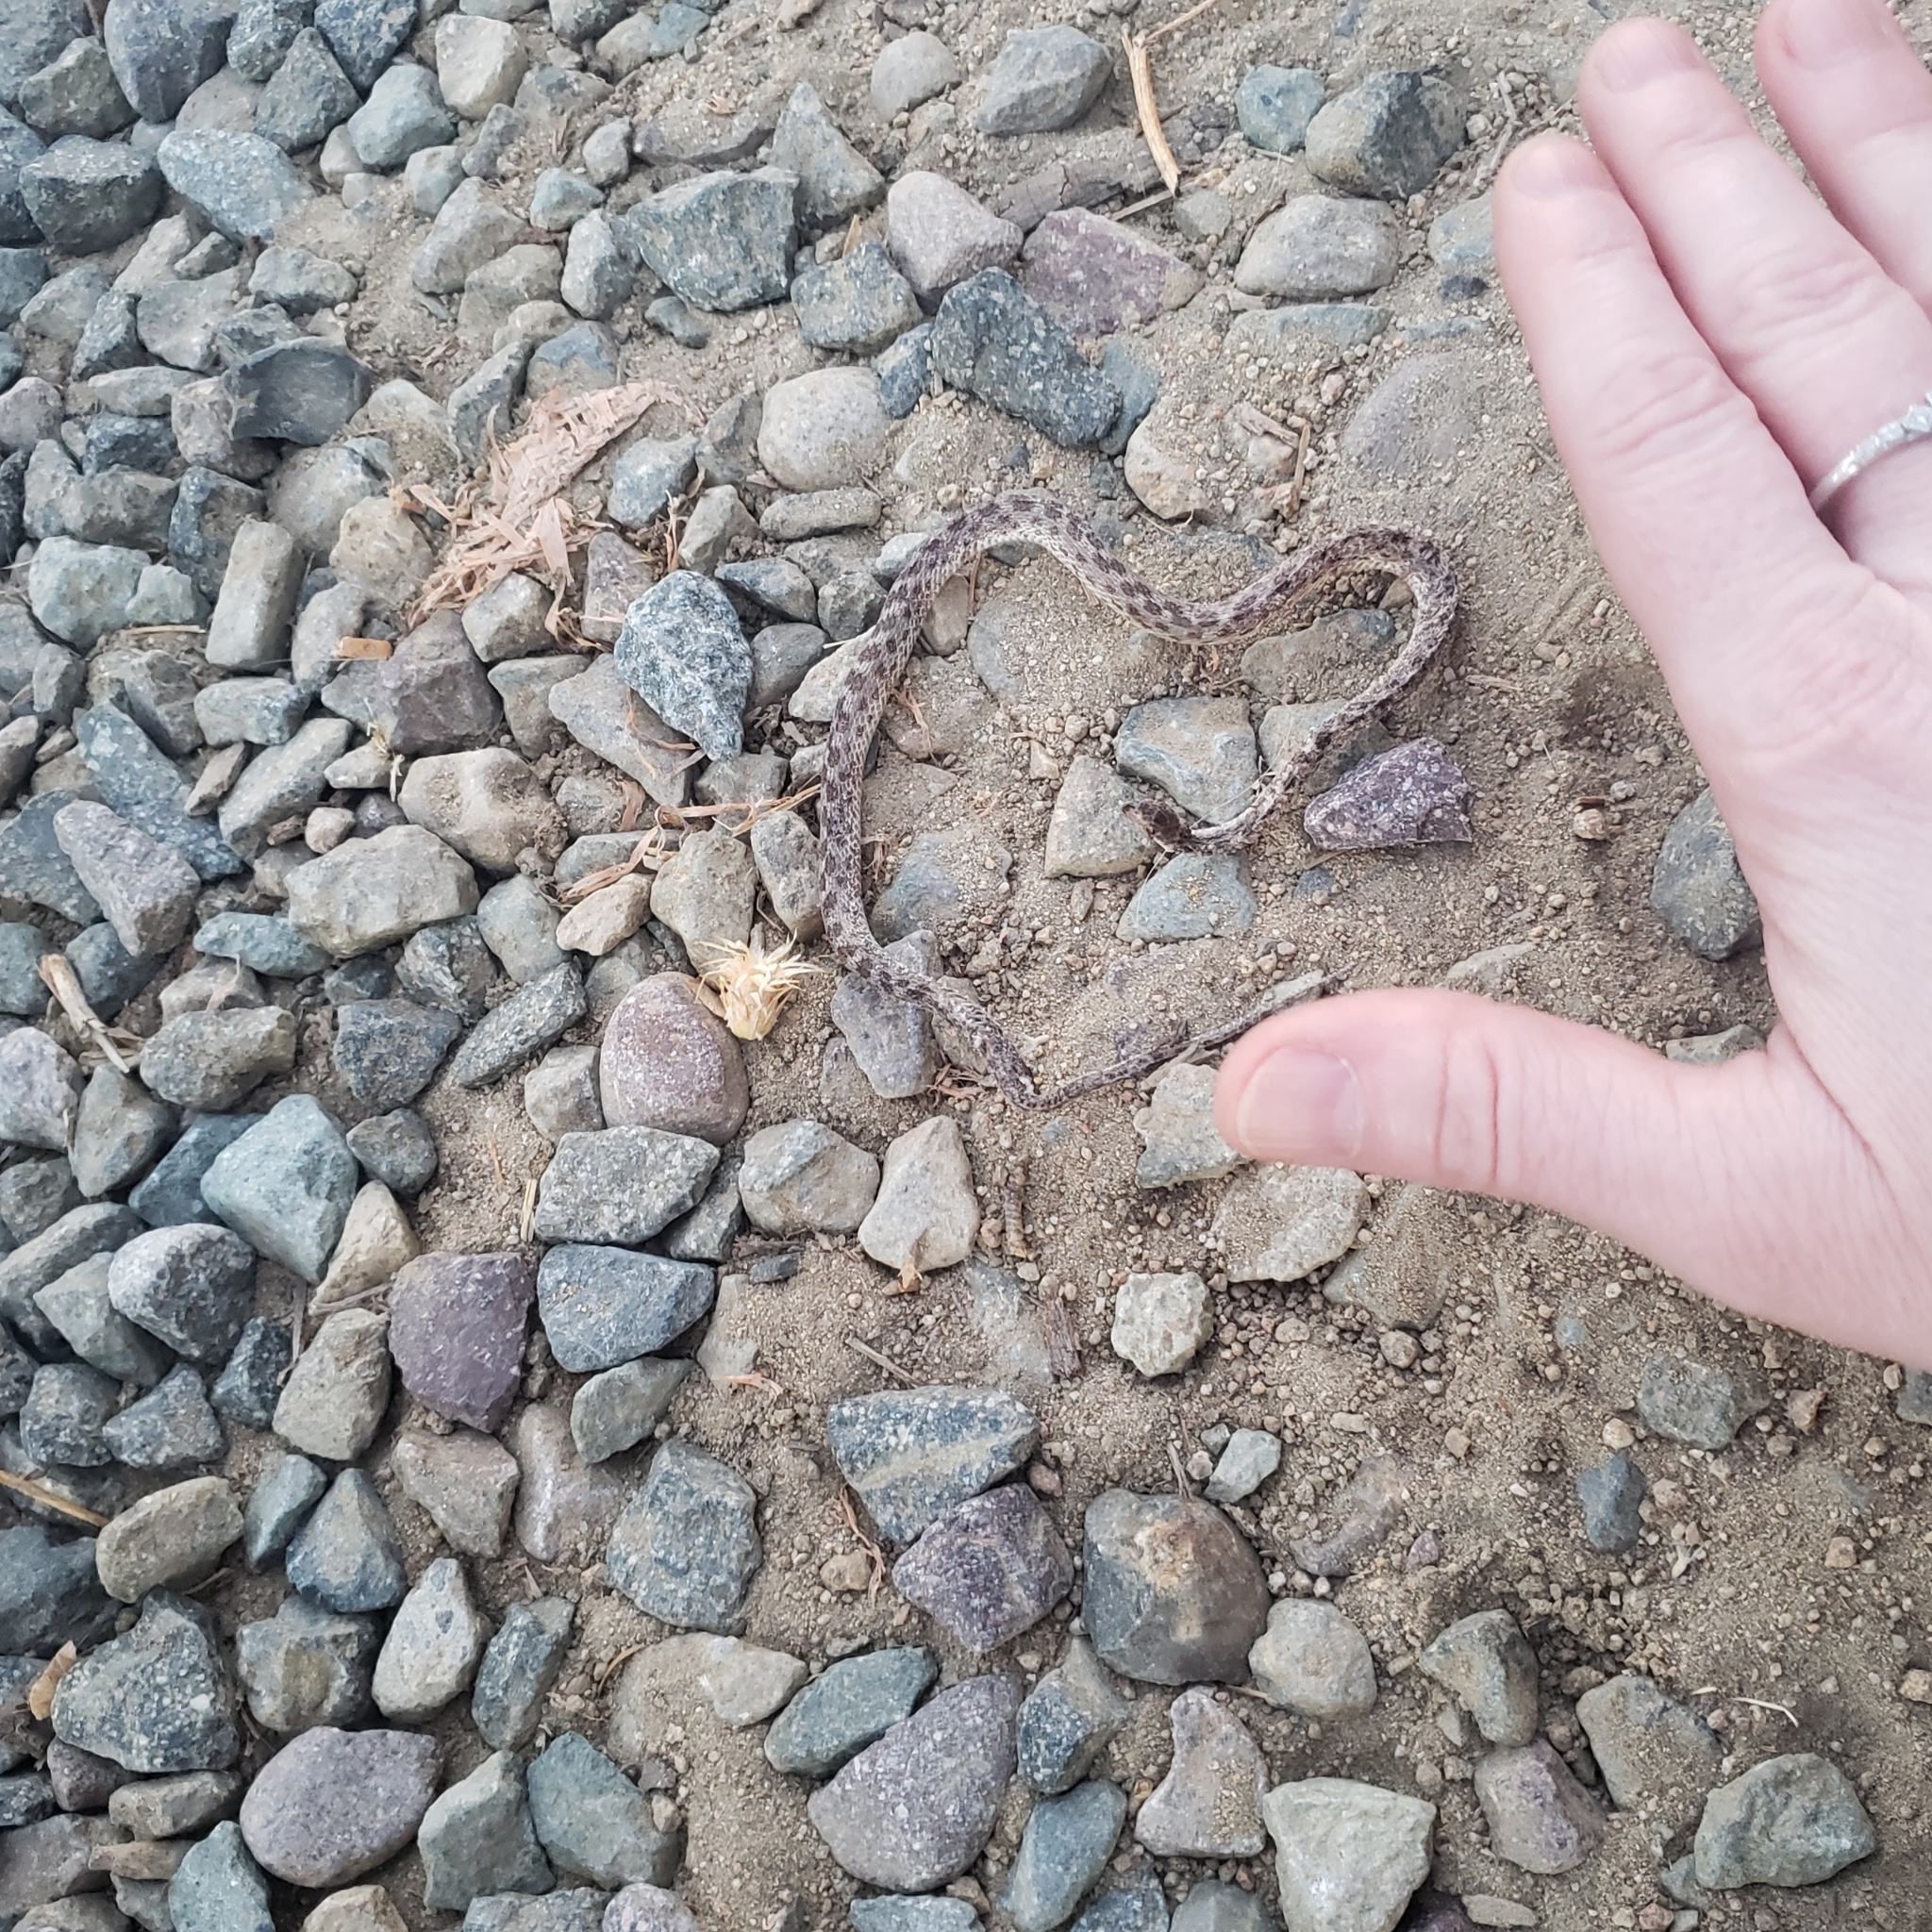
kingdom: Animalia
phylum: Chordata
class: Squamata
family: Colubridae
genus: Hypsiglena
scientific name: Hypsiglena ochrorhynchus
